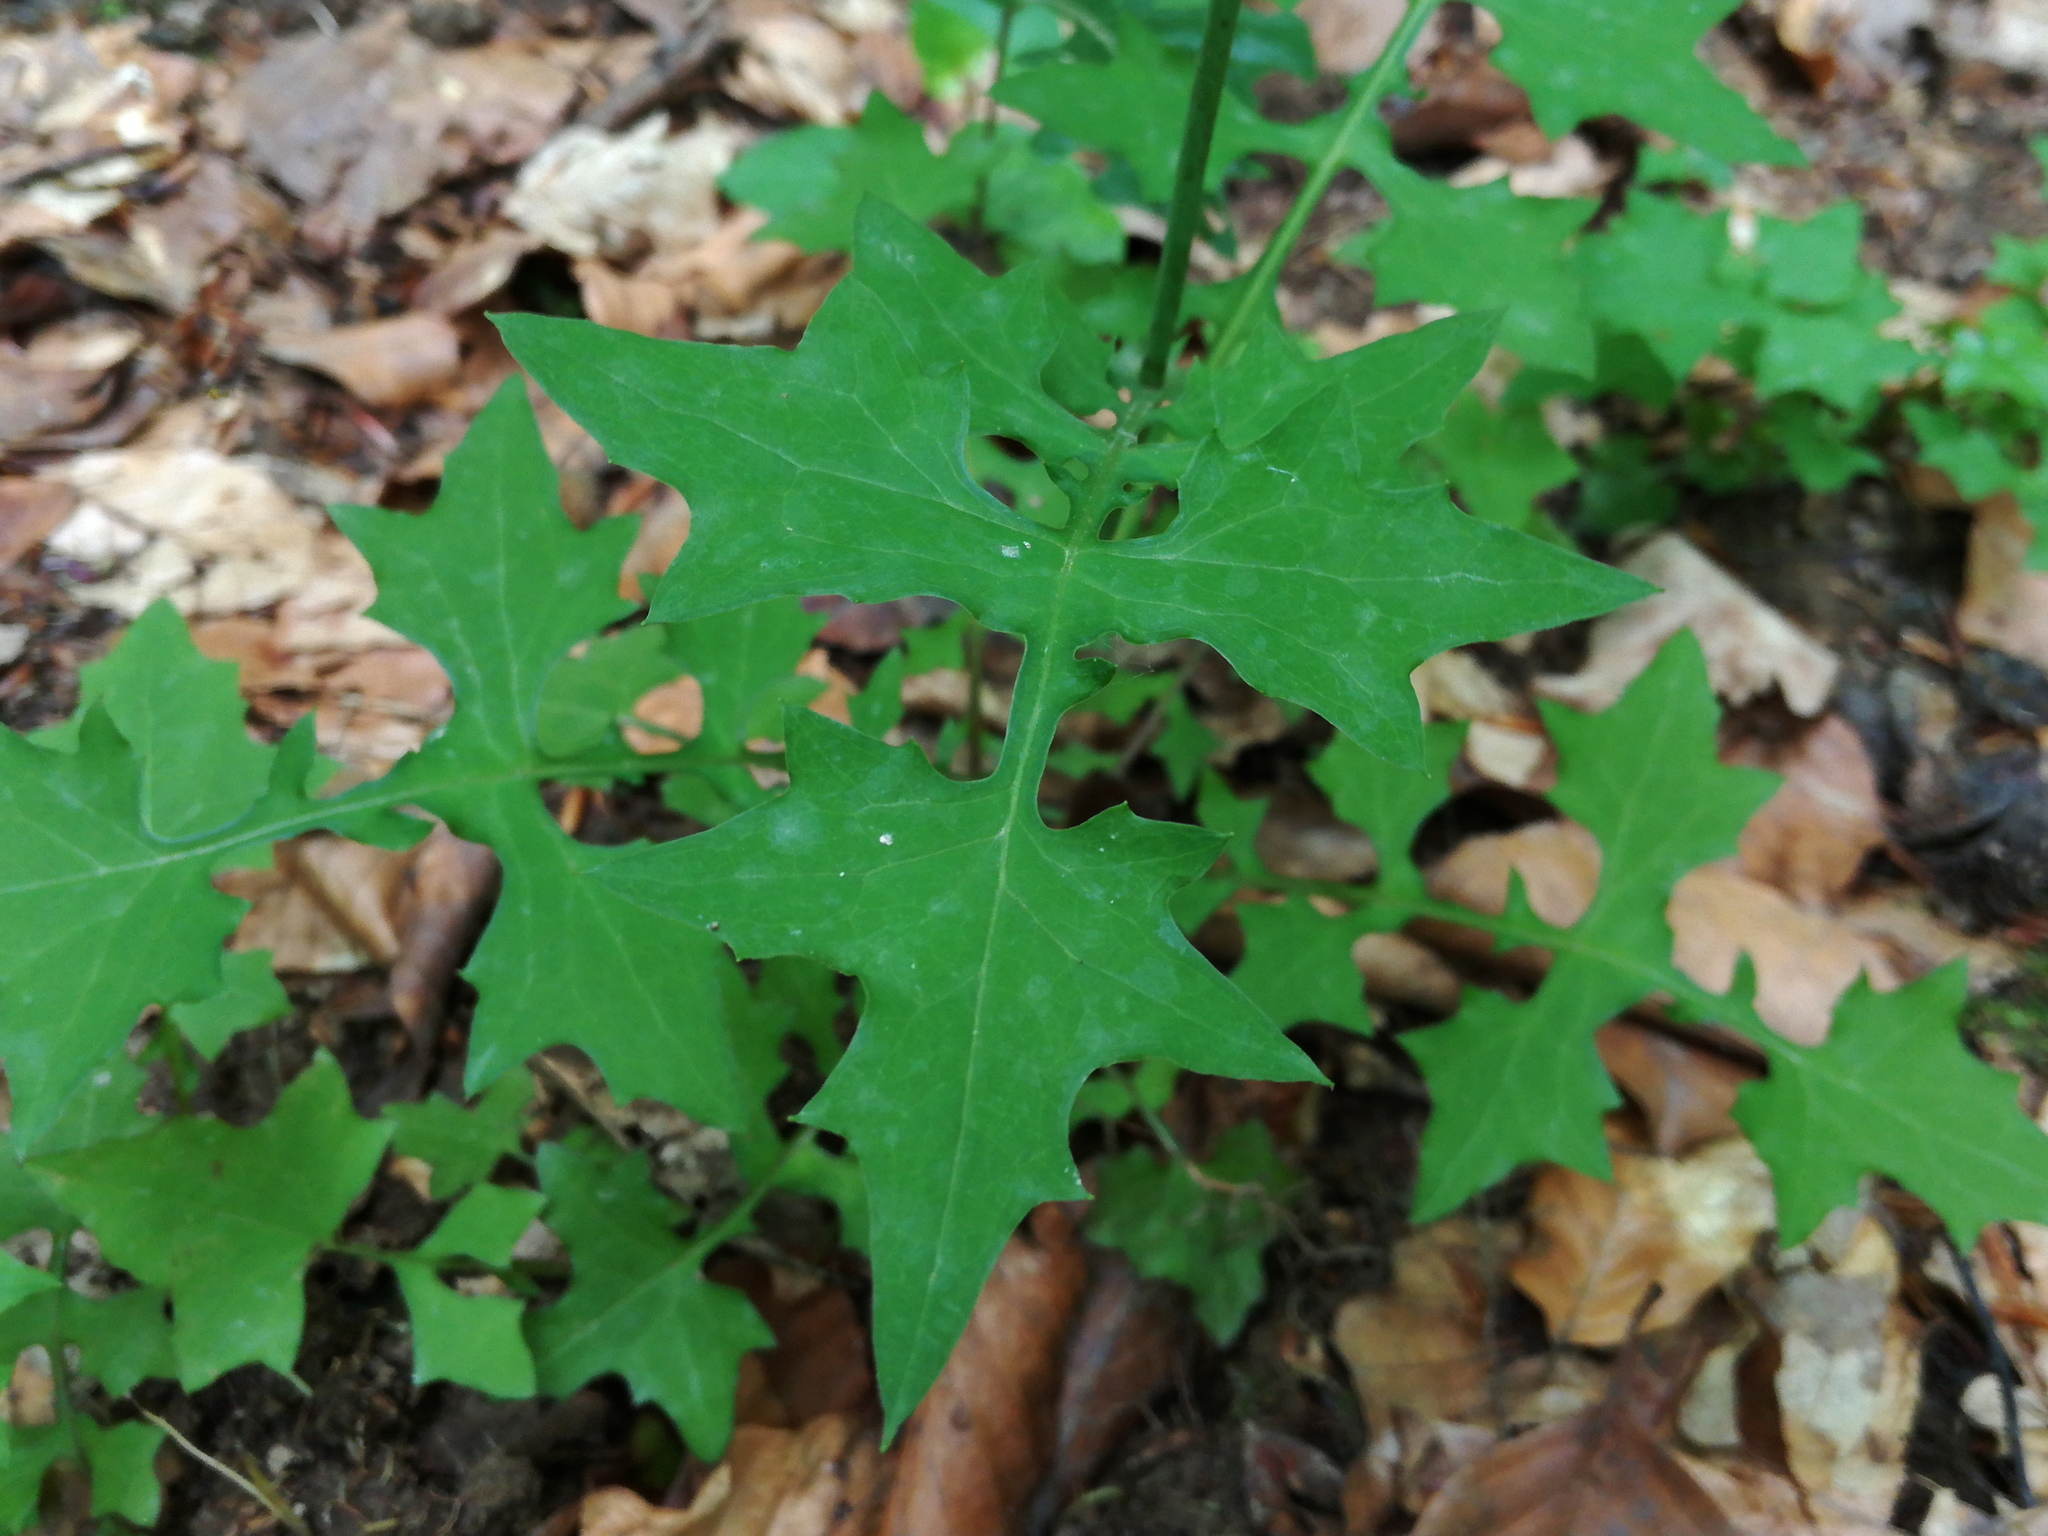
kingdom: Plantae
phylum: Tracheophyta
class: Magnoliopsida
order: Asterales
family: Asteraceae
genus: Mycelis
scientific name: Mycelis muralis
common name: Wall lettuce
